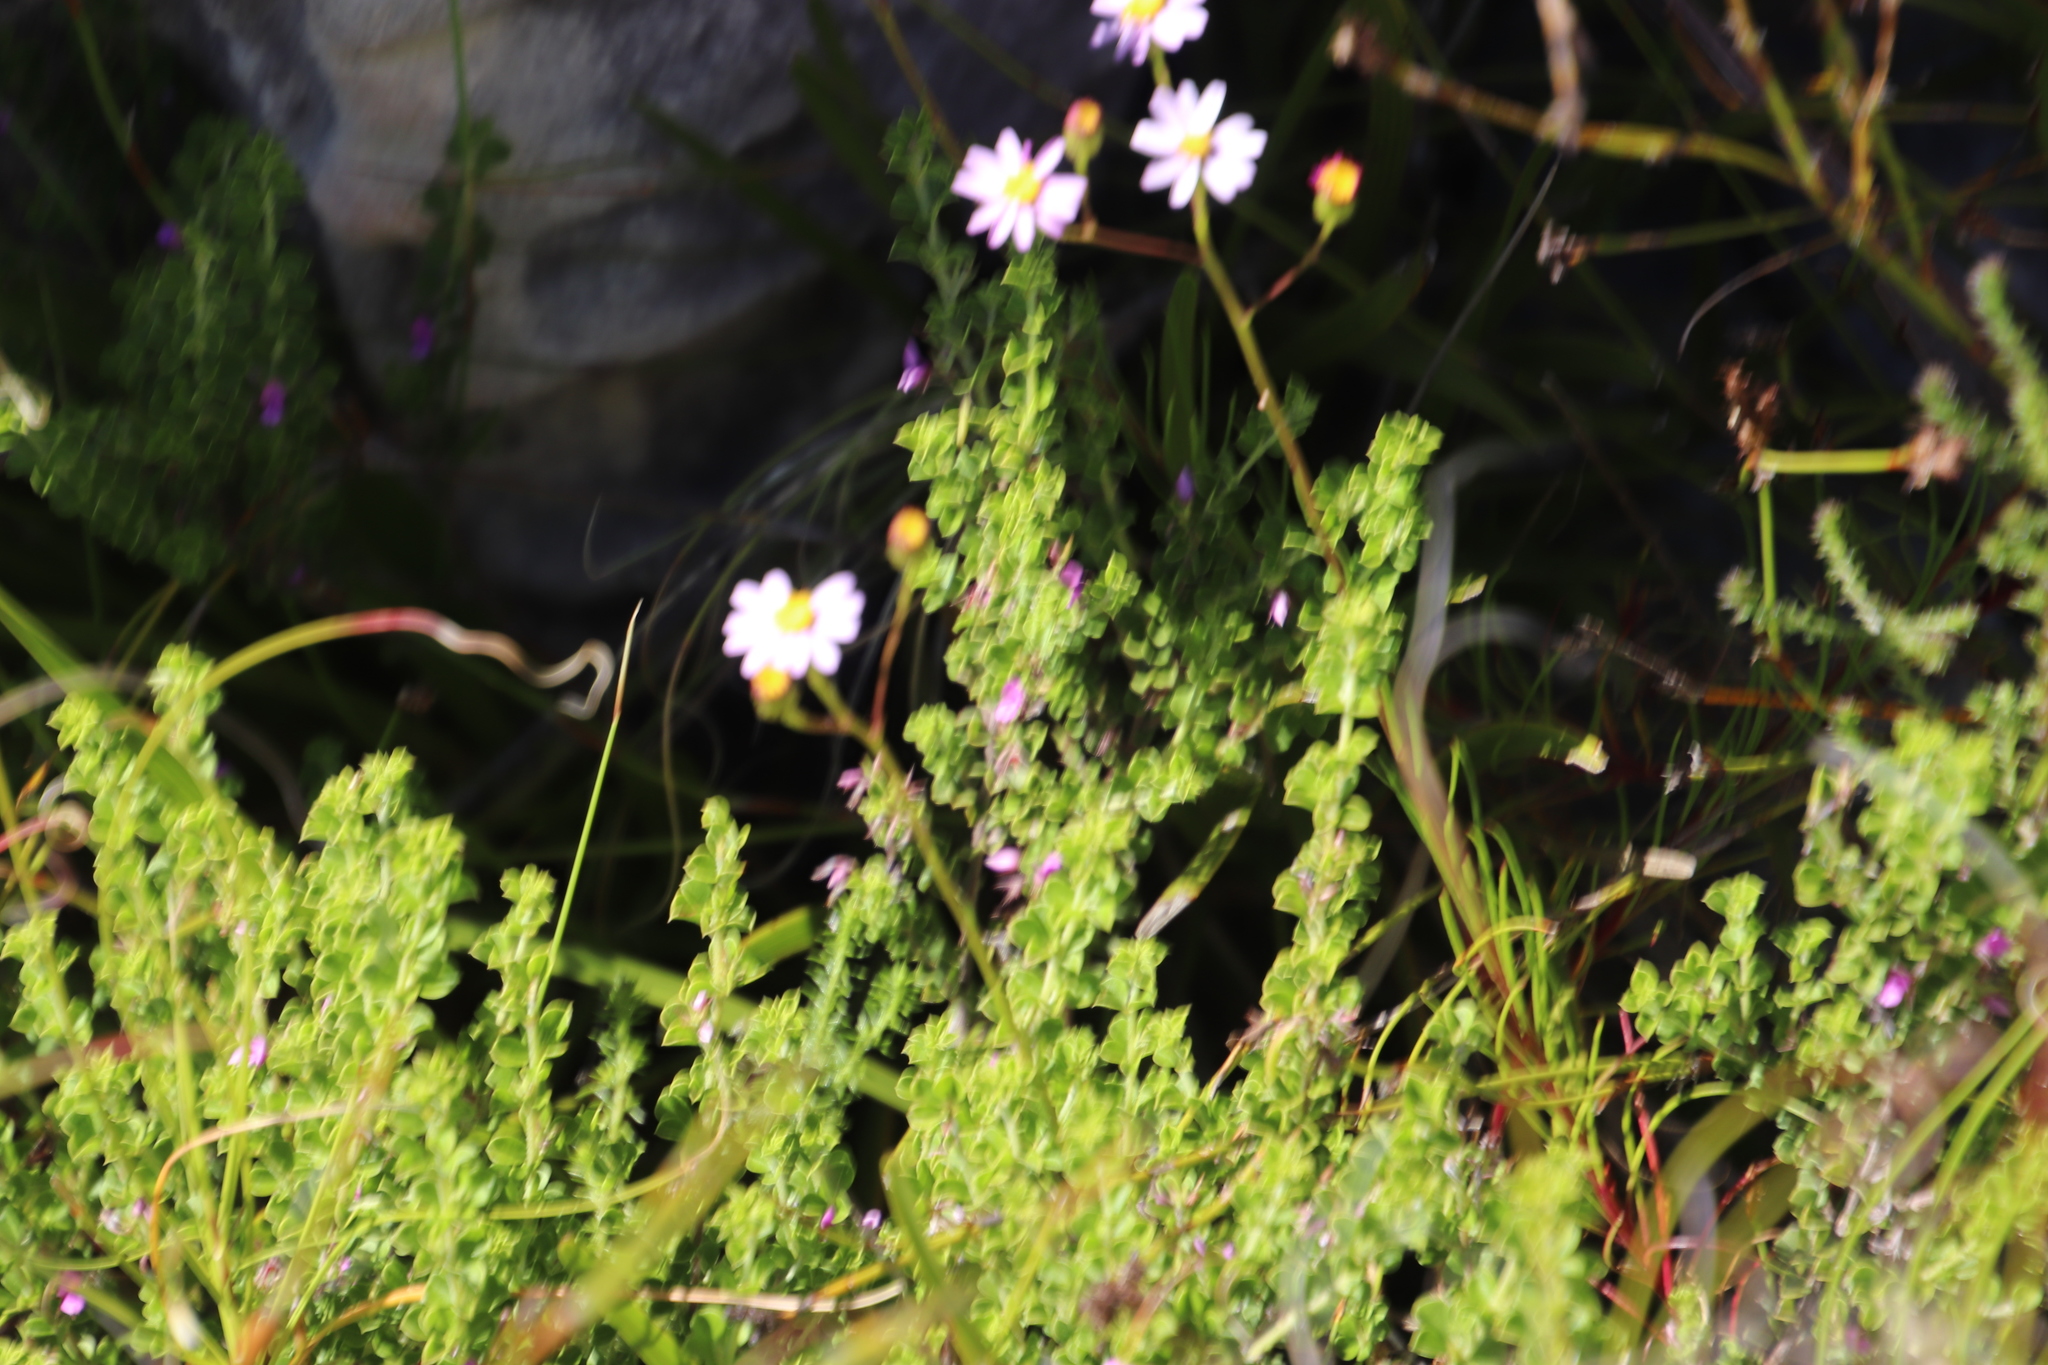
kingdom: Plantae
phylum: Tracheophyta
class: Magnoliopsida
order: Fabales
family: Fabaceae
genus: Indigofera
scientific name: Indigofera candolleana
